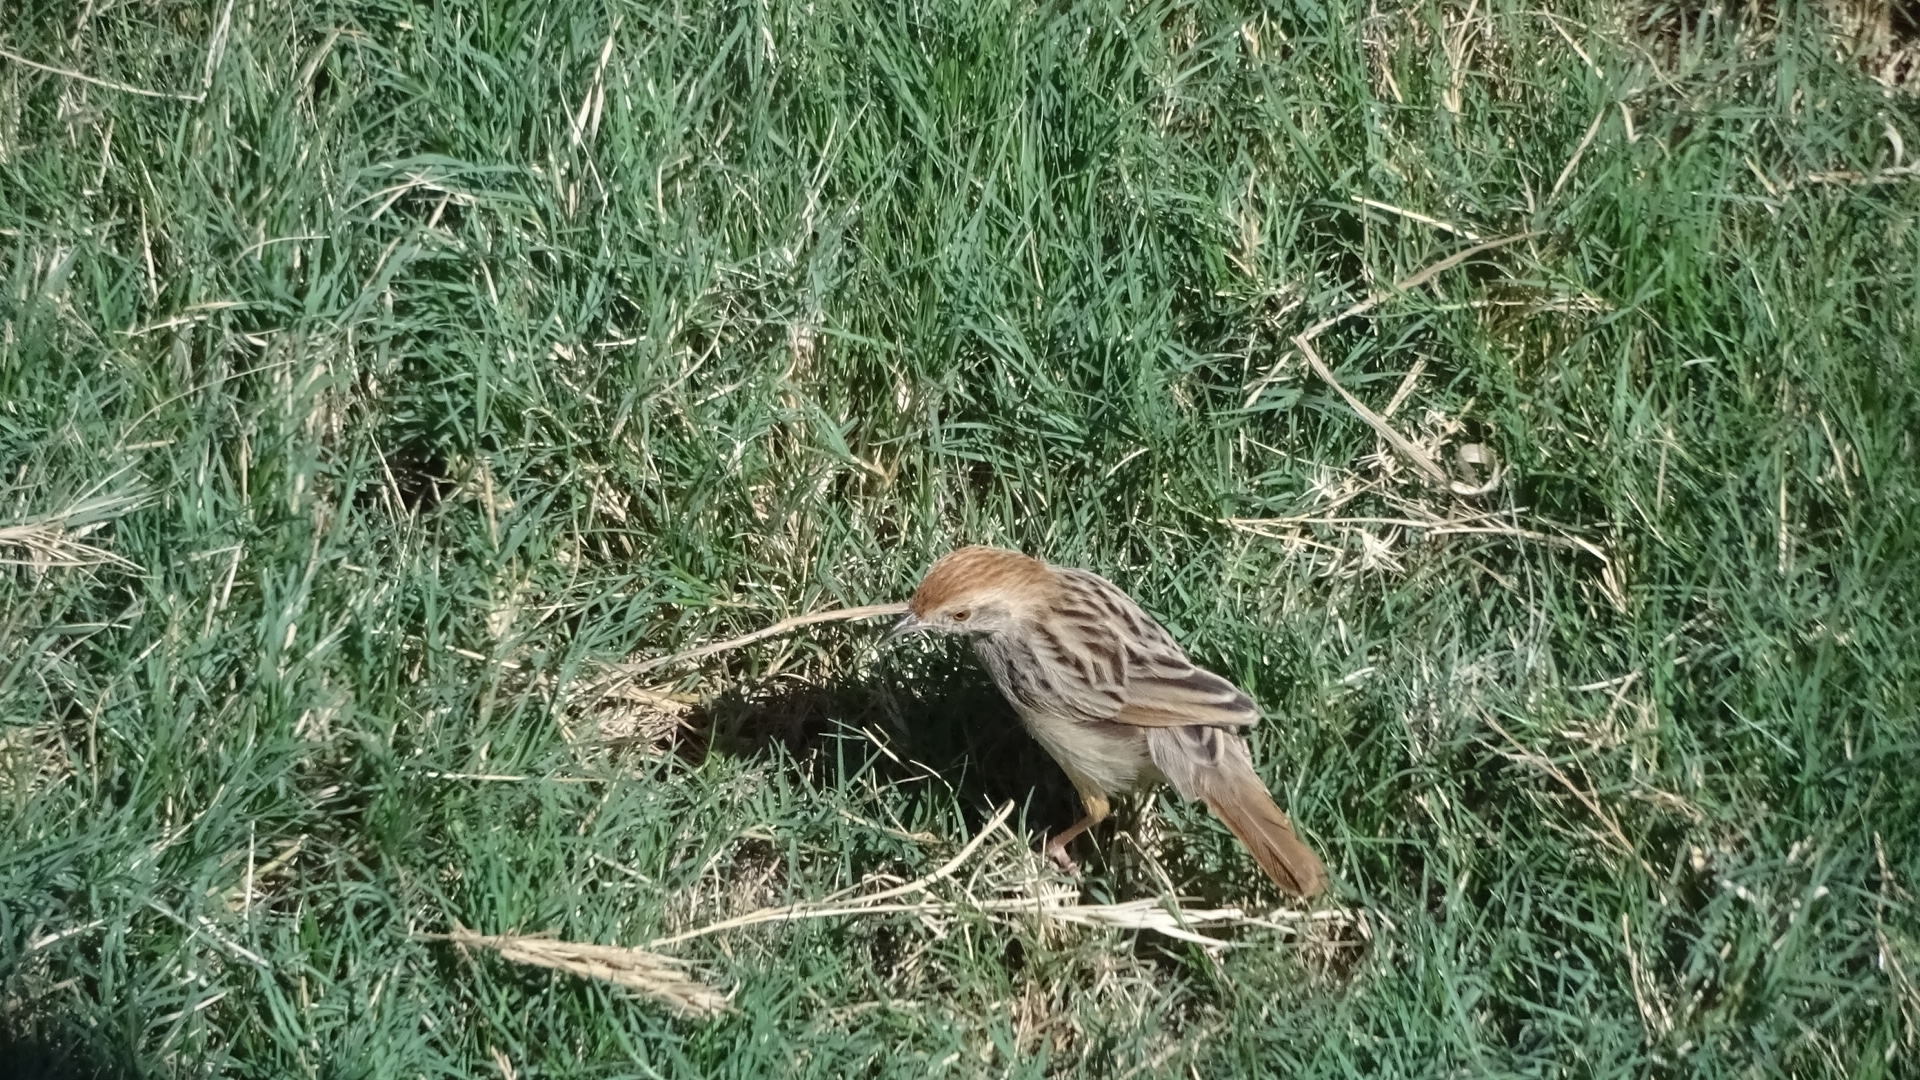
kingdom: Animalia
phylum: Chordata
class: Aves
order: Passeriformes
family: Cisticolidae
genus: Cisticola
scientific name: Cisticola chiniana
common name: Rattling cisticola
